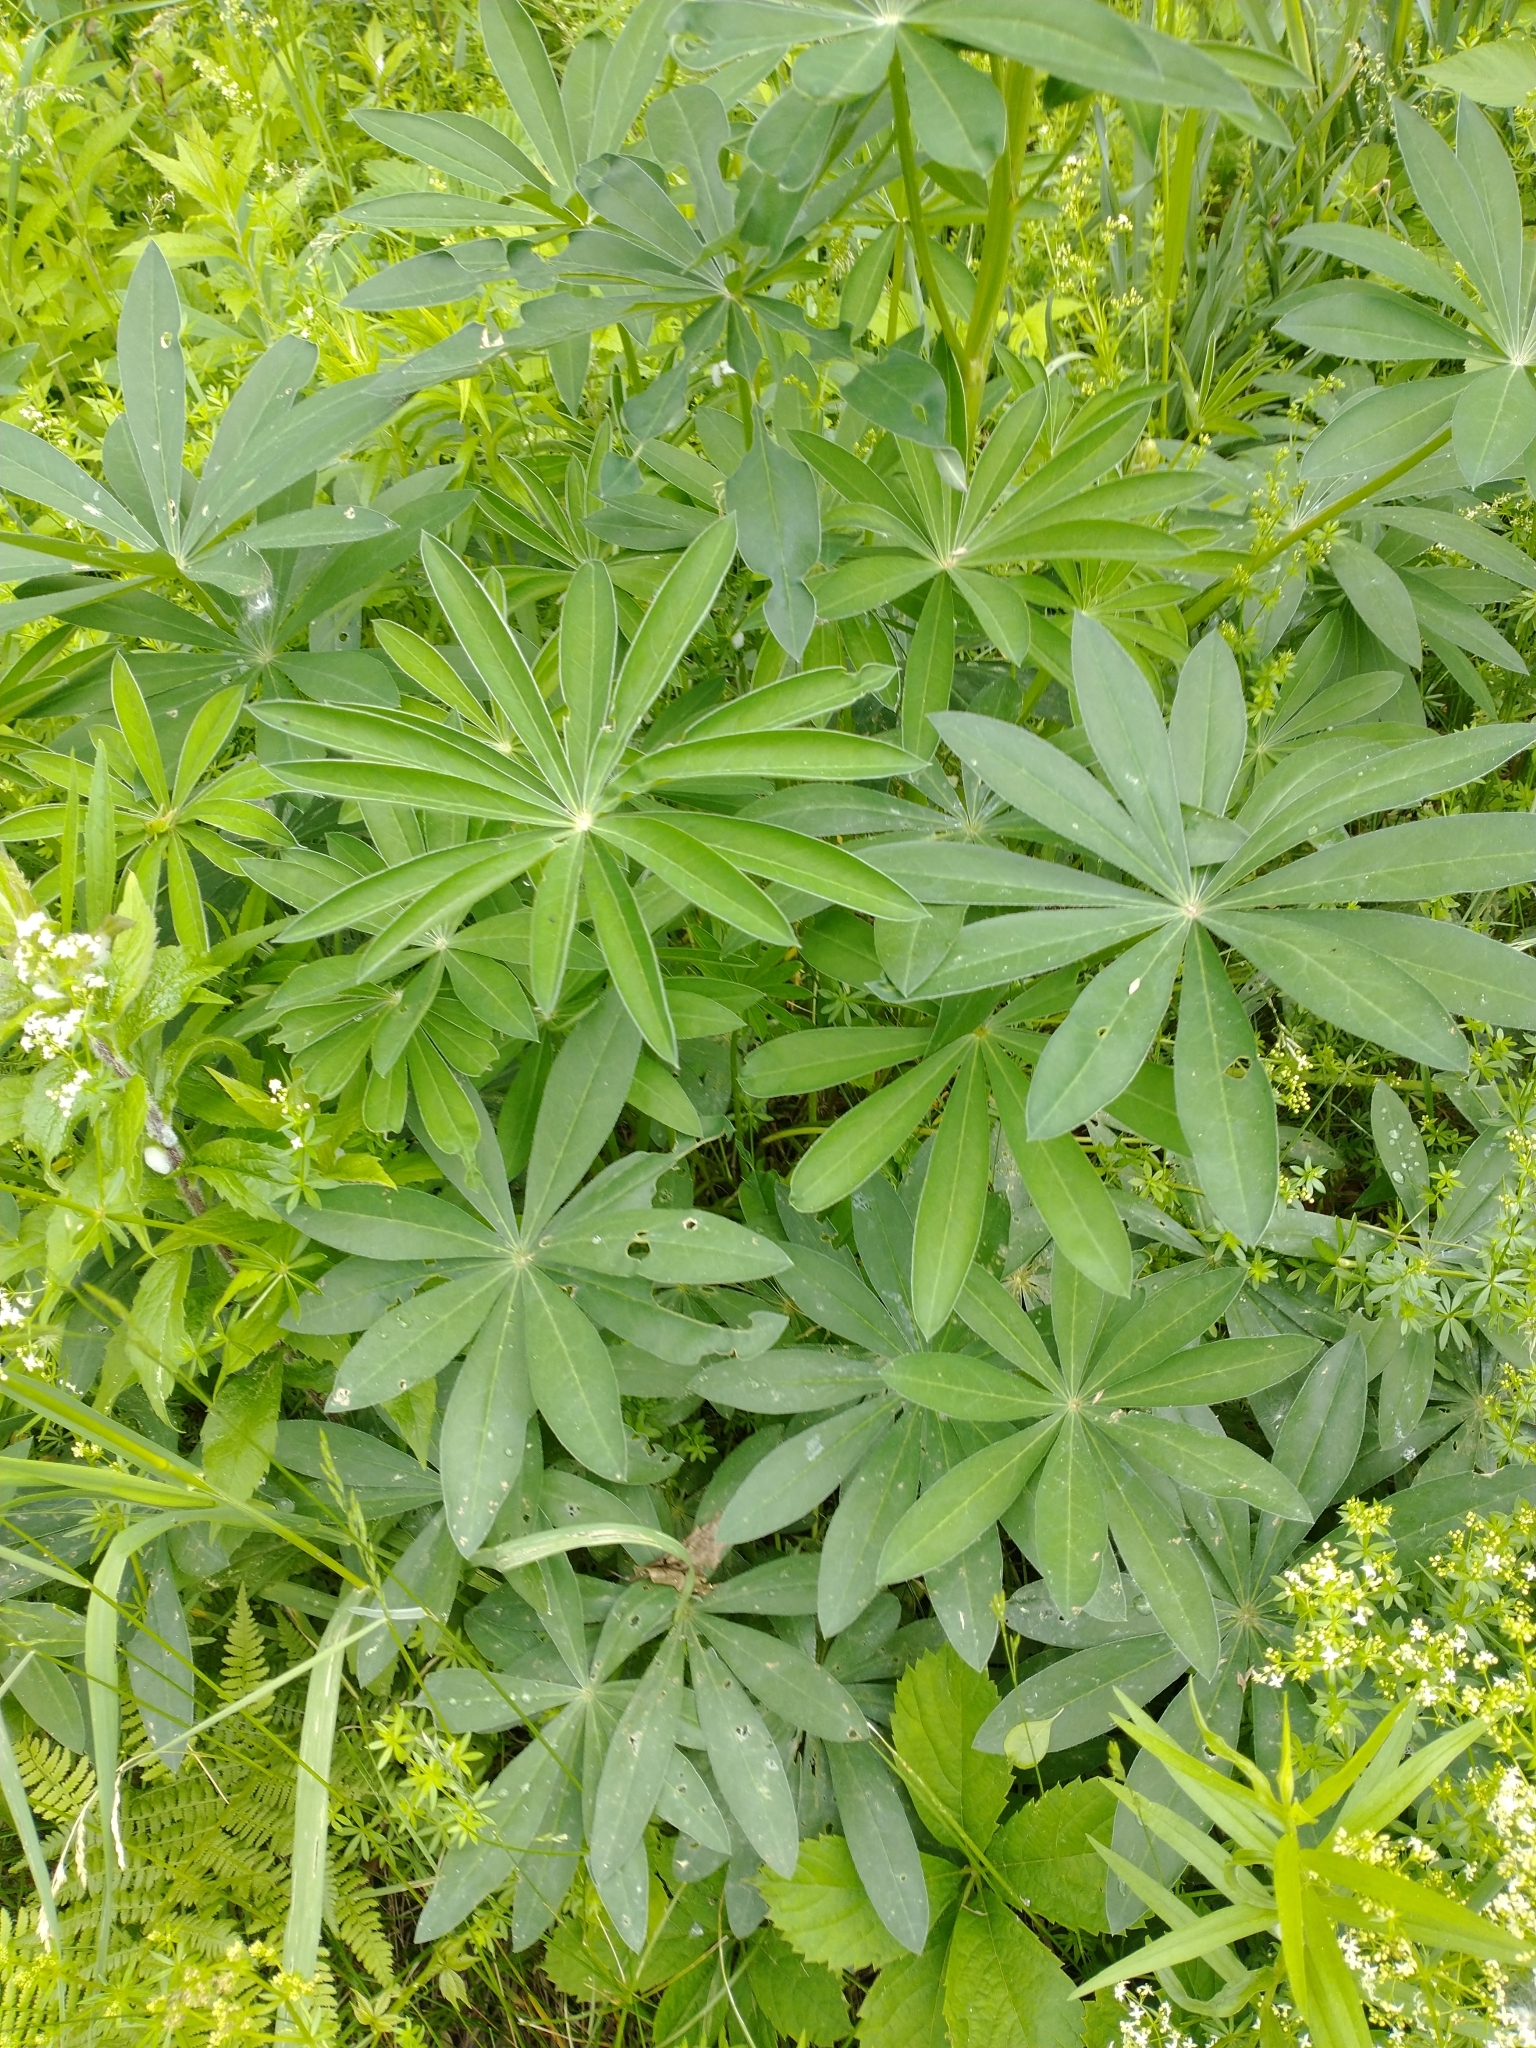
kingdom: Plantae
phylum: Tracheophyta
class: Magnoliopsida
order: Fabales
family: Fabaceae
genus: Lupinus
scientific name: Lupinus polyphyllus
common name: Garden lupin
